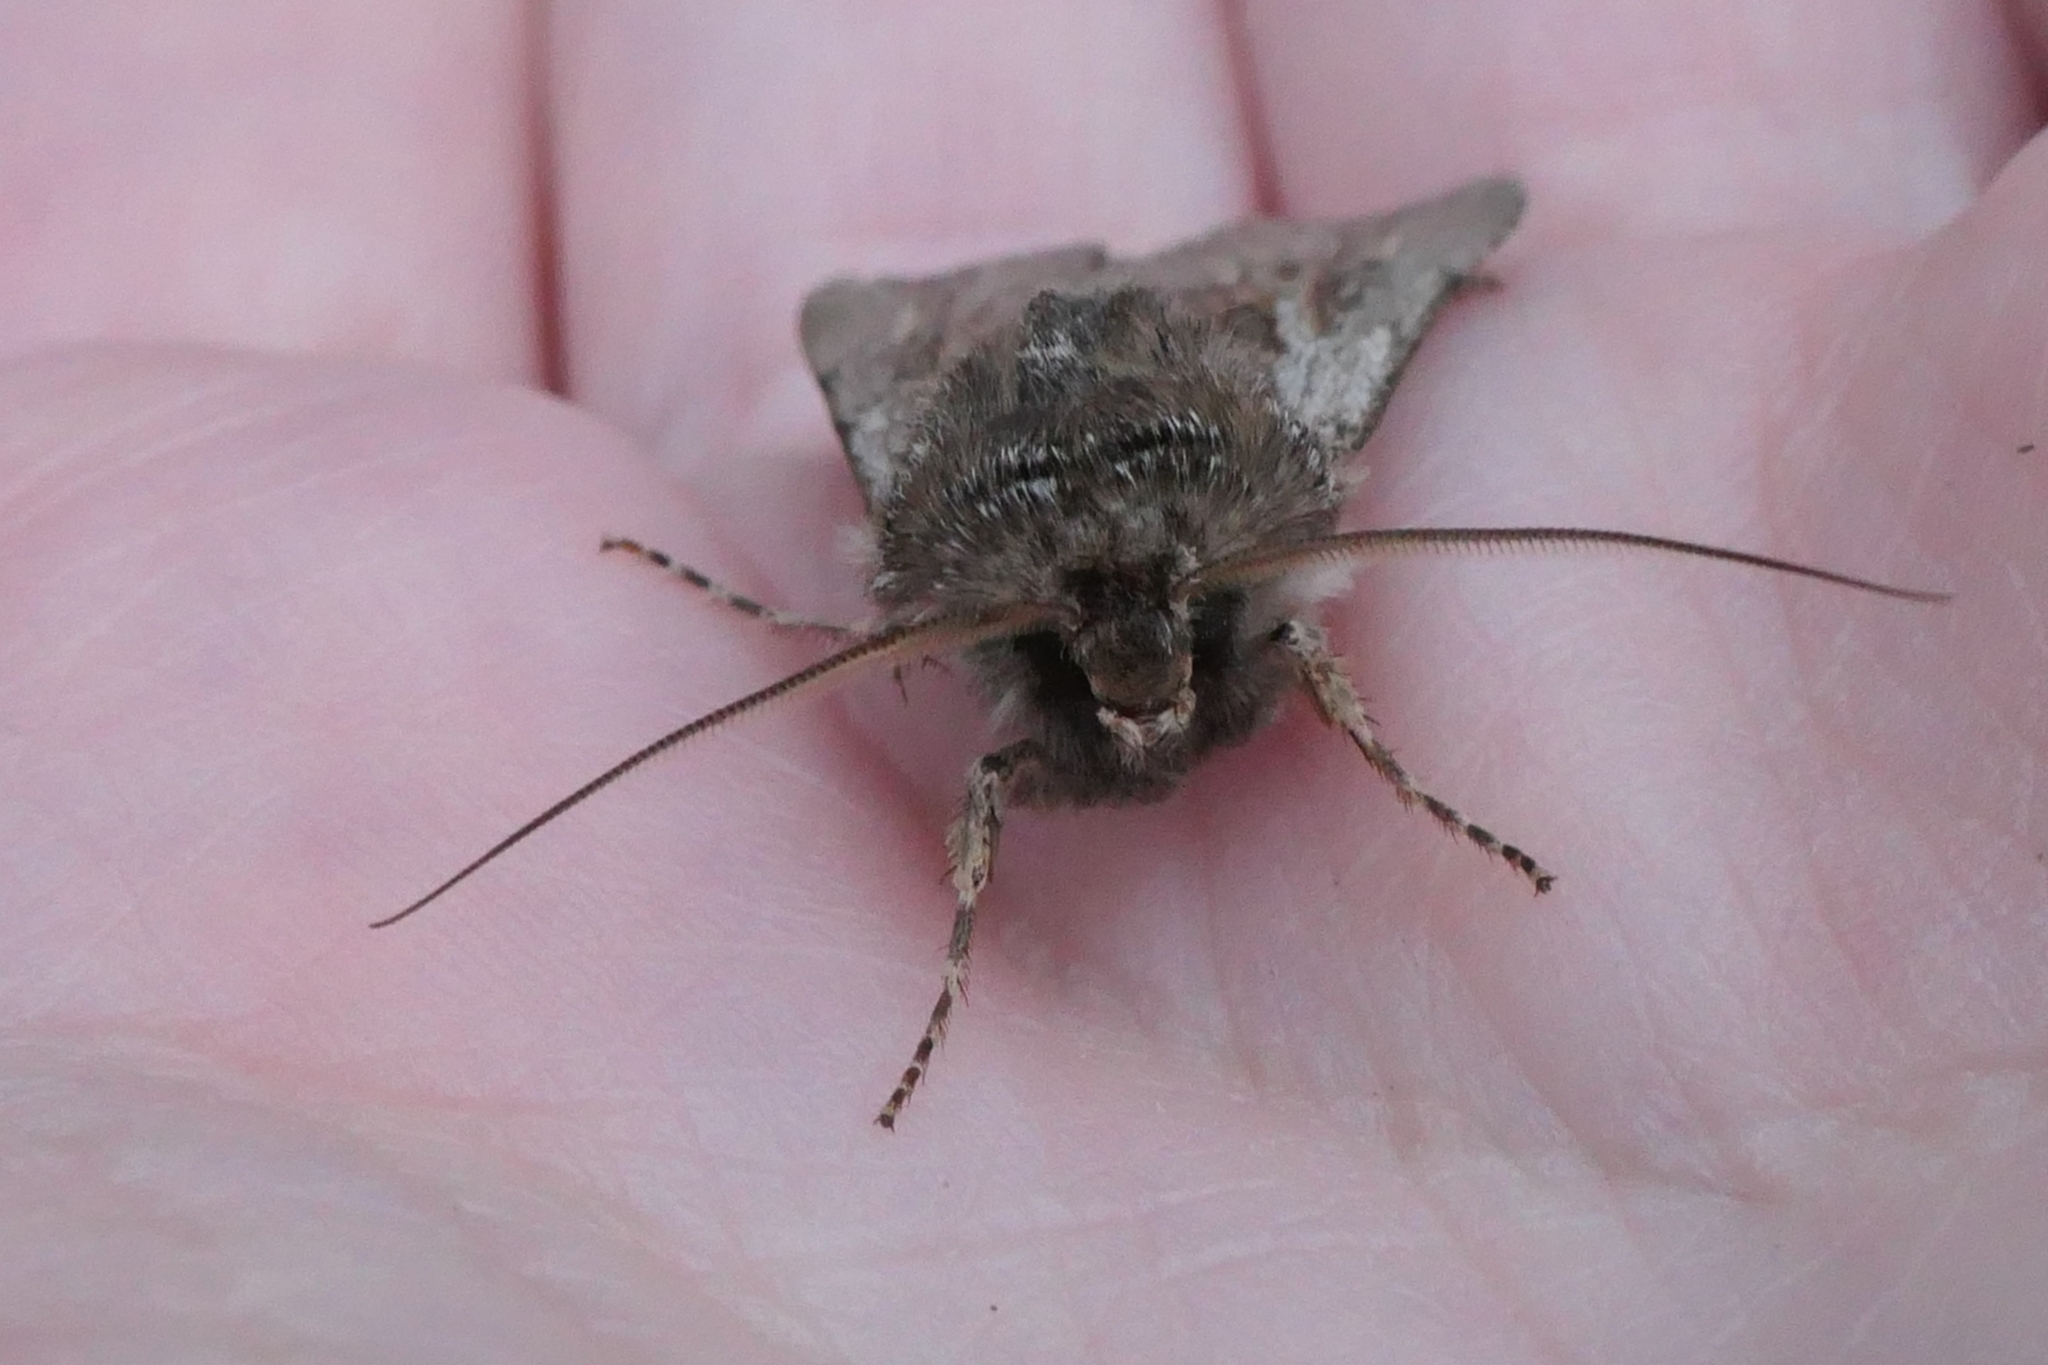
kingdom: Animalia
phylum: Arthropoda
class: Insecta
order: Lepidoptera
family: Noctuidae
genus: Agrotis
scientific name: Agrotis innominata
